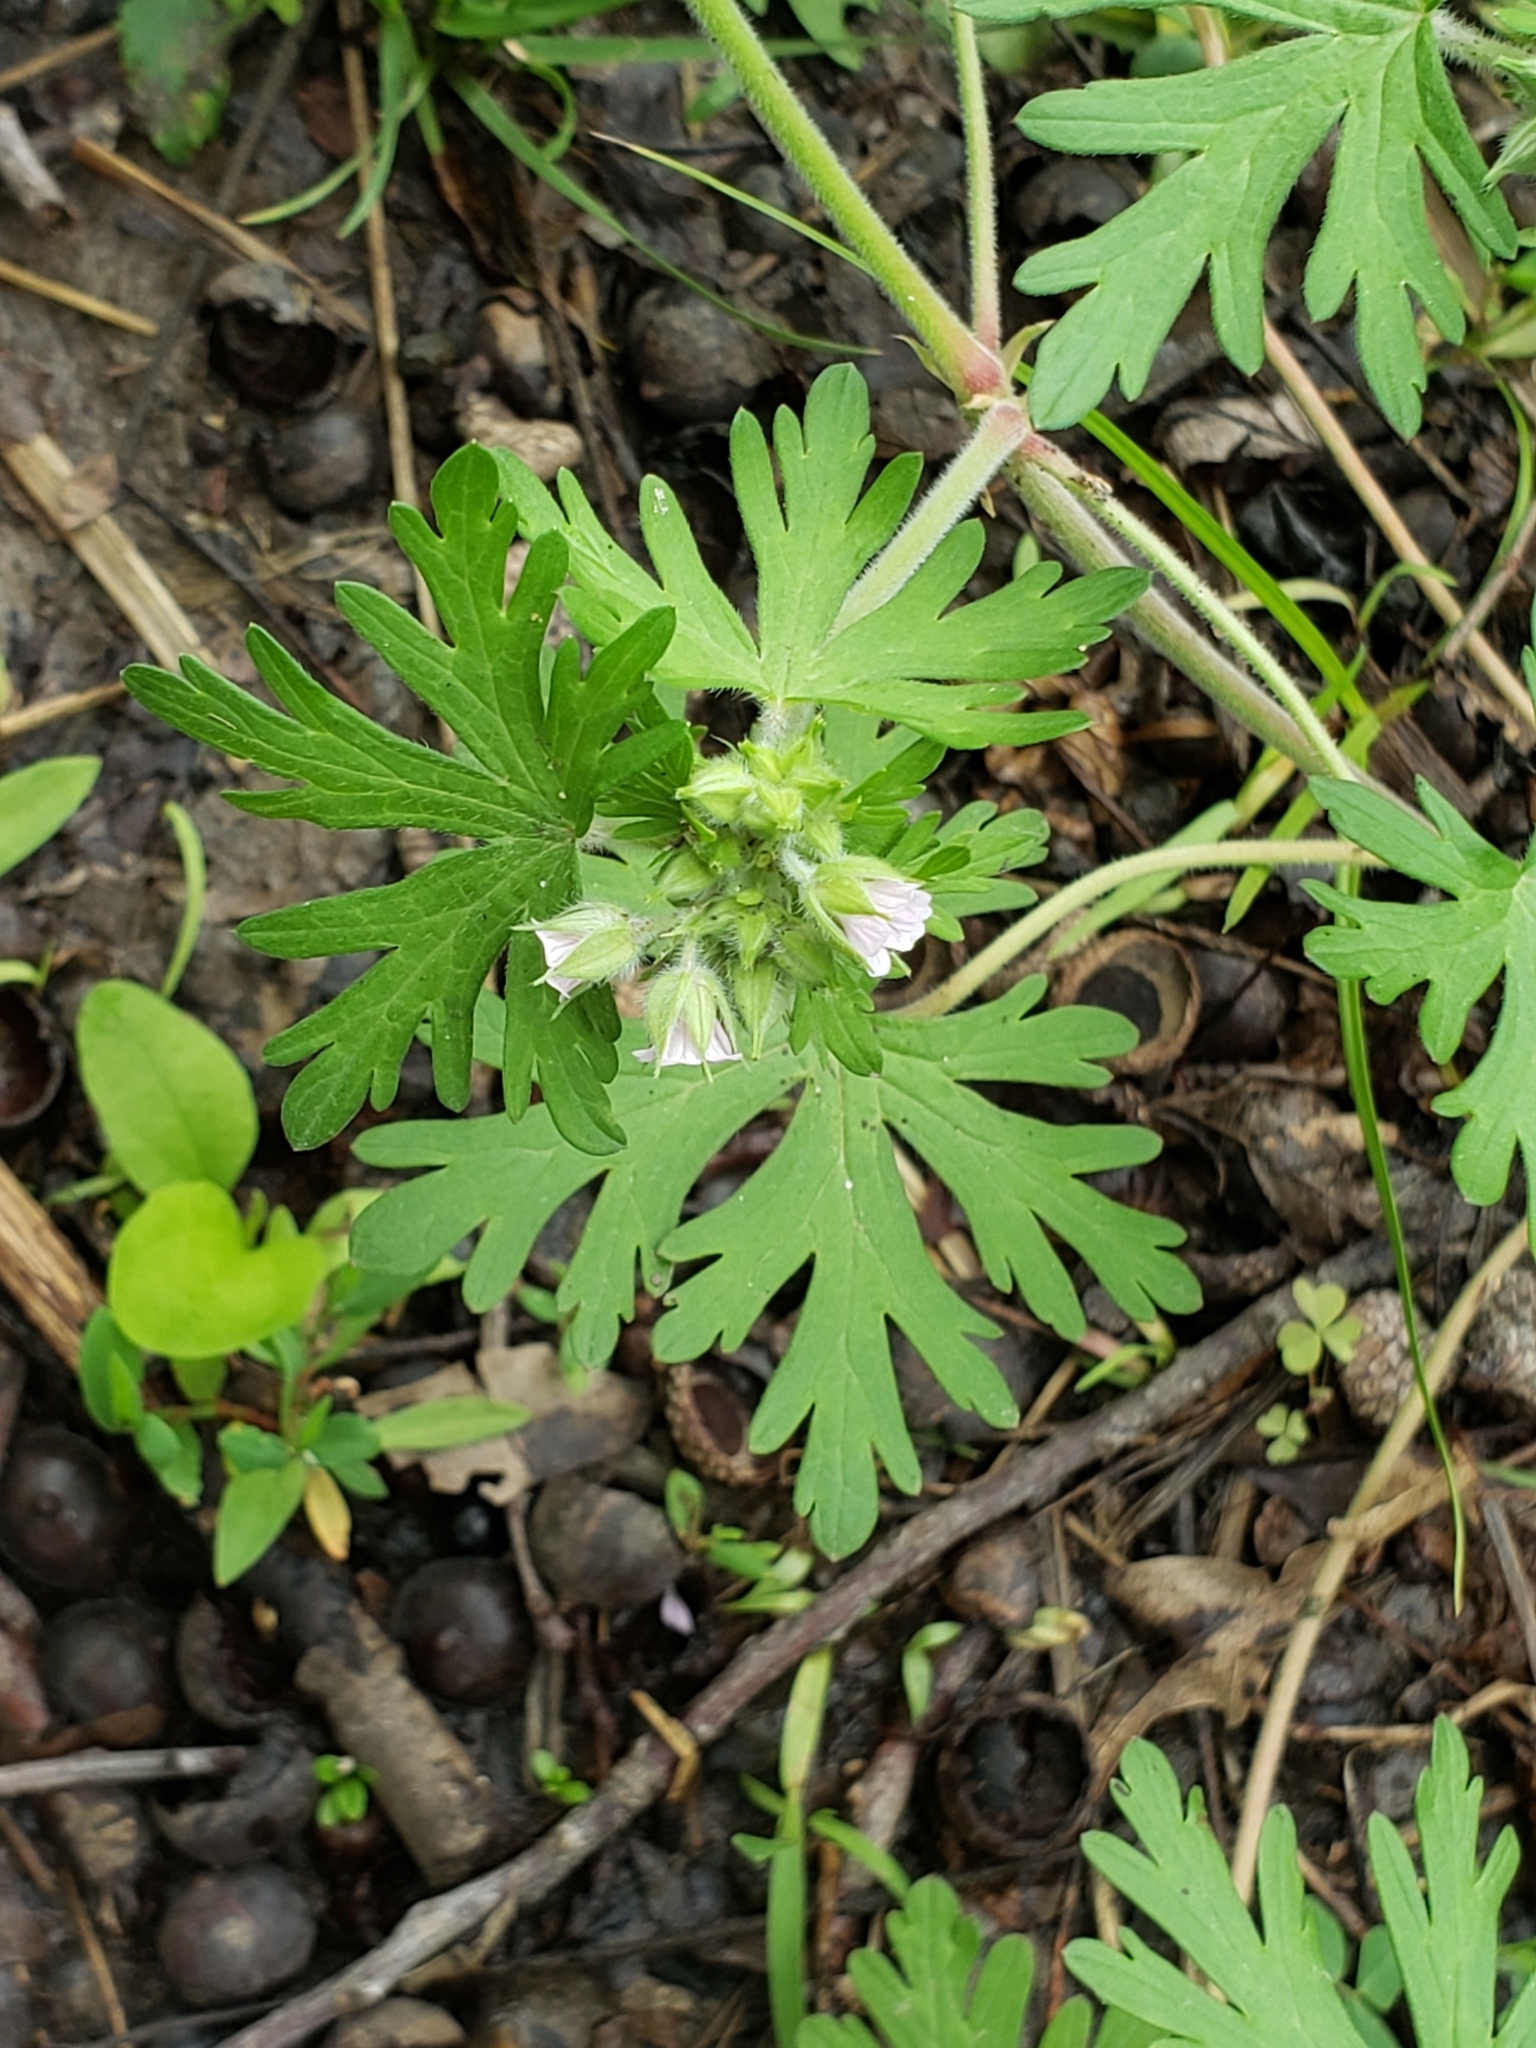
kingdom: Plantae
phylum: Tracheophyta
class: Magnoliopsida
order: Geraniales
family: Geraniaceae
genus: Geranium
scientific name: Geranium carolinianum
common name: Carolina crane's-bill
